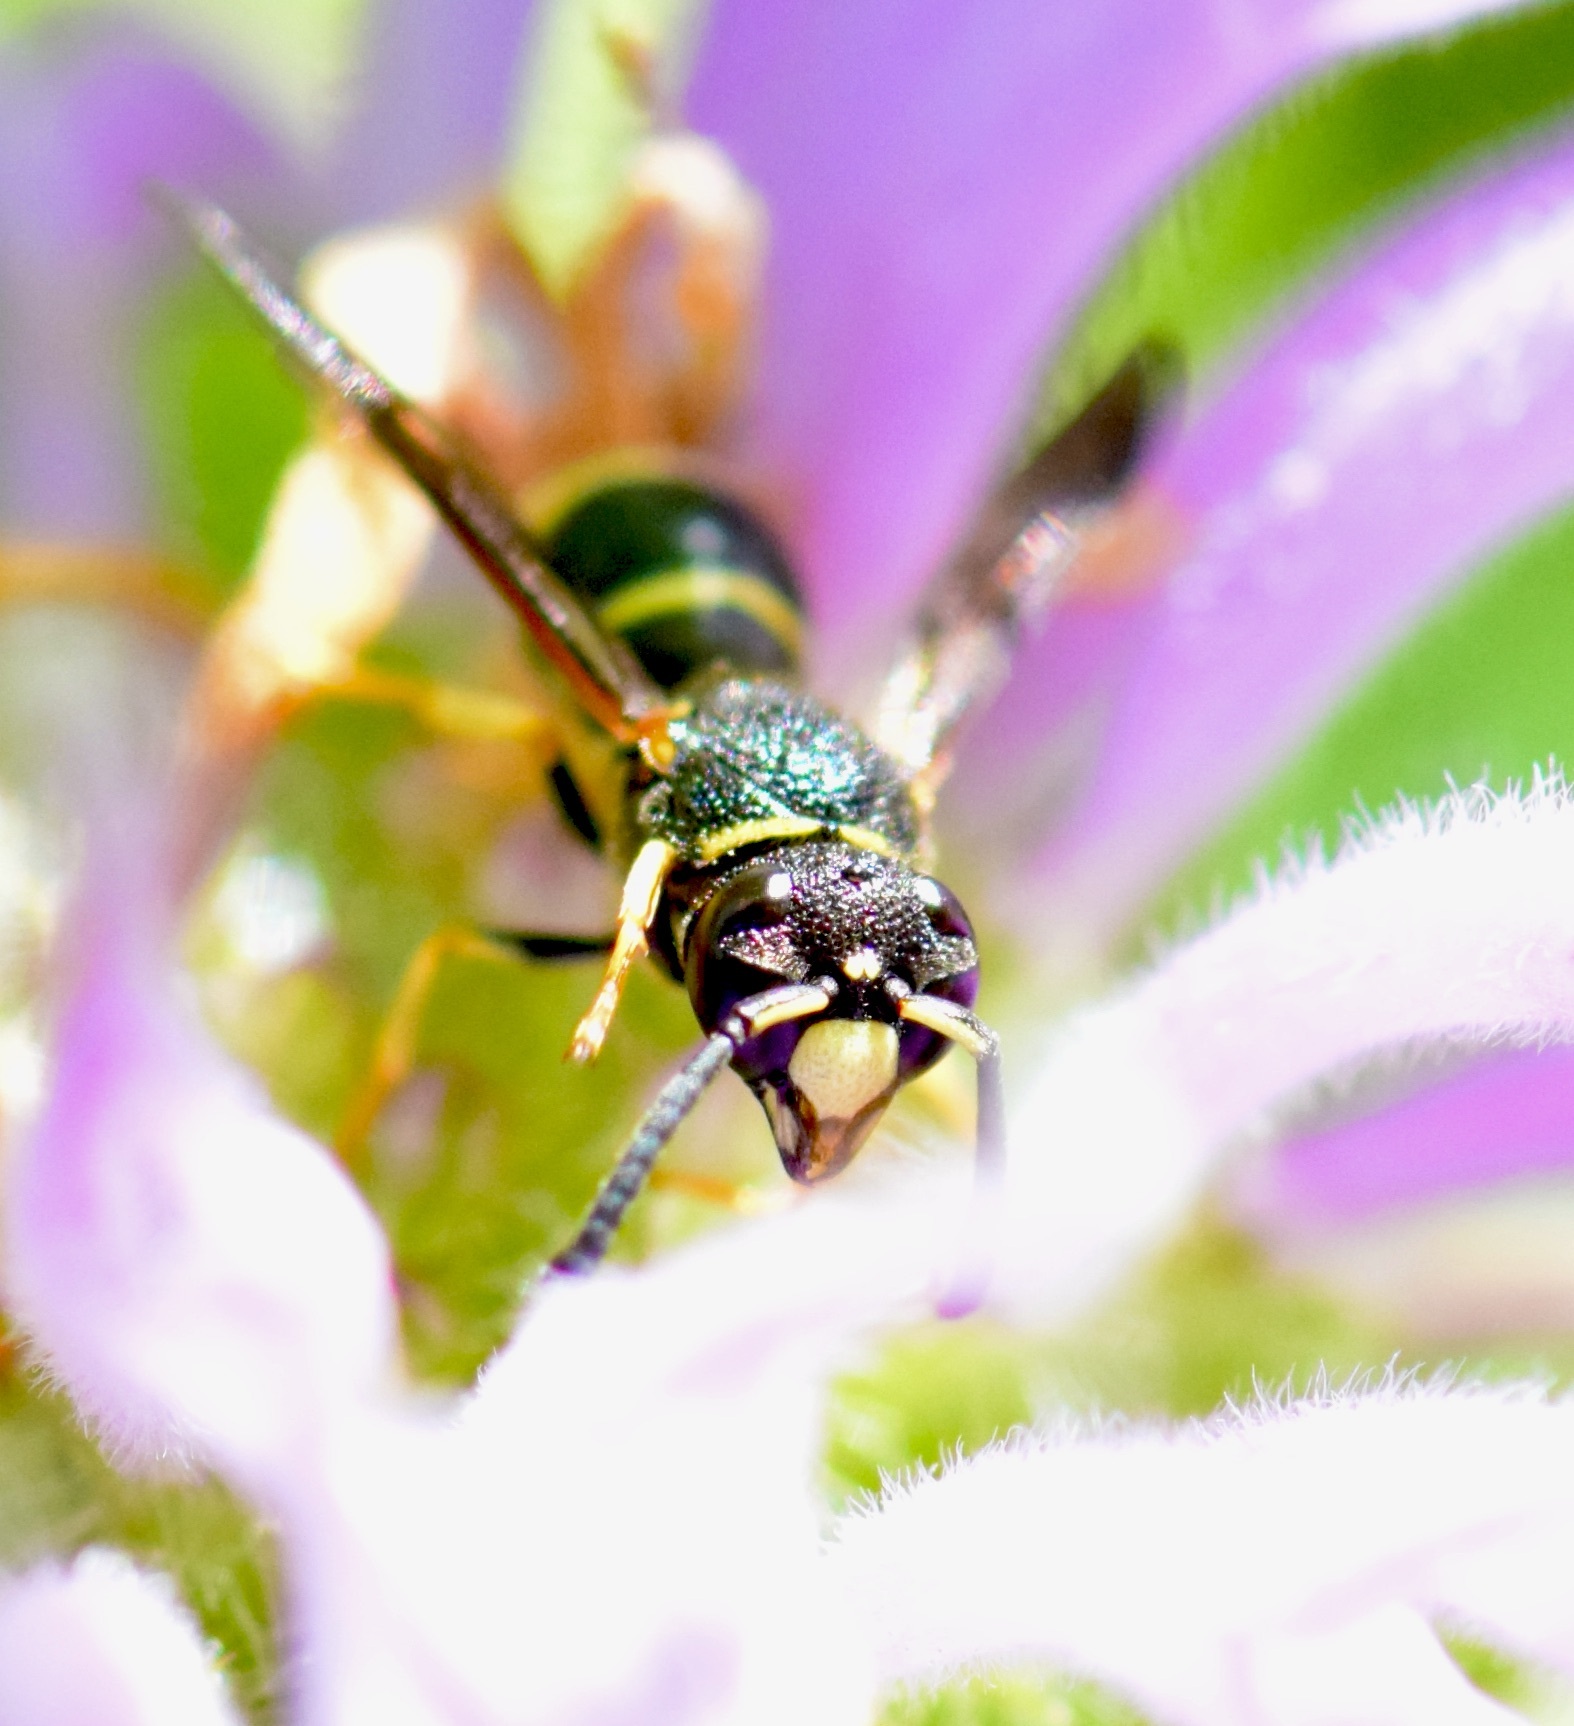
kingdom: Animalia
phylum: Arthropoda
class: Insecta
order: Hymenoptera
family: Eumenidae
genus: Euodynerus
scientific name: Euodynerus foraminatus
